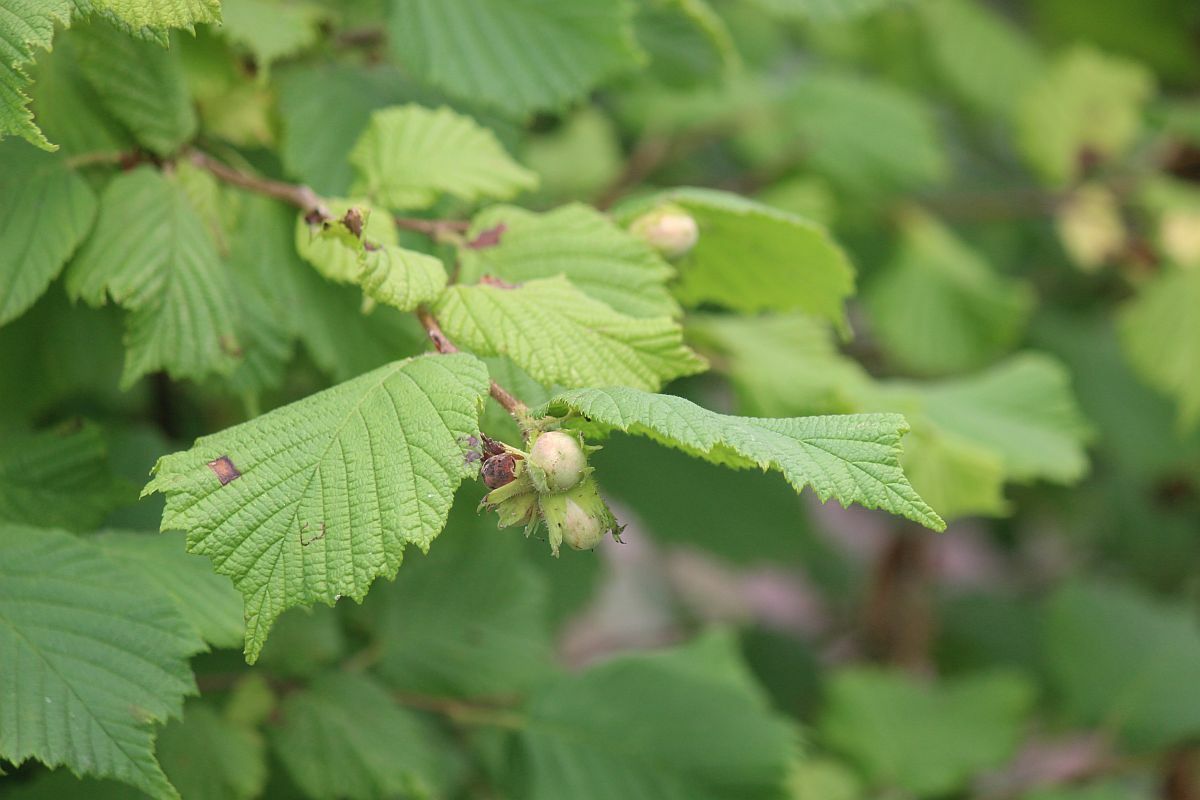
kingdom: Plantae
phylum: Tracheophyta
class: Magnoliopsida
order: Fagales
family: Betulaceae
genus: Corylus
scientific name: Corylus avellana
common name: European hazel
